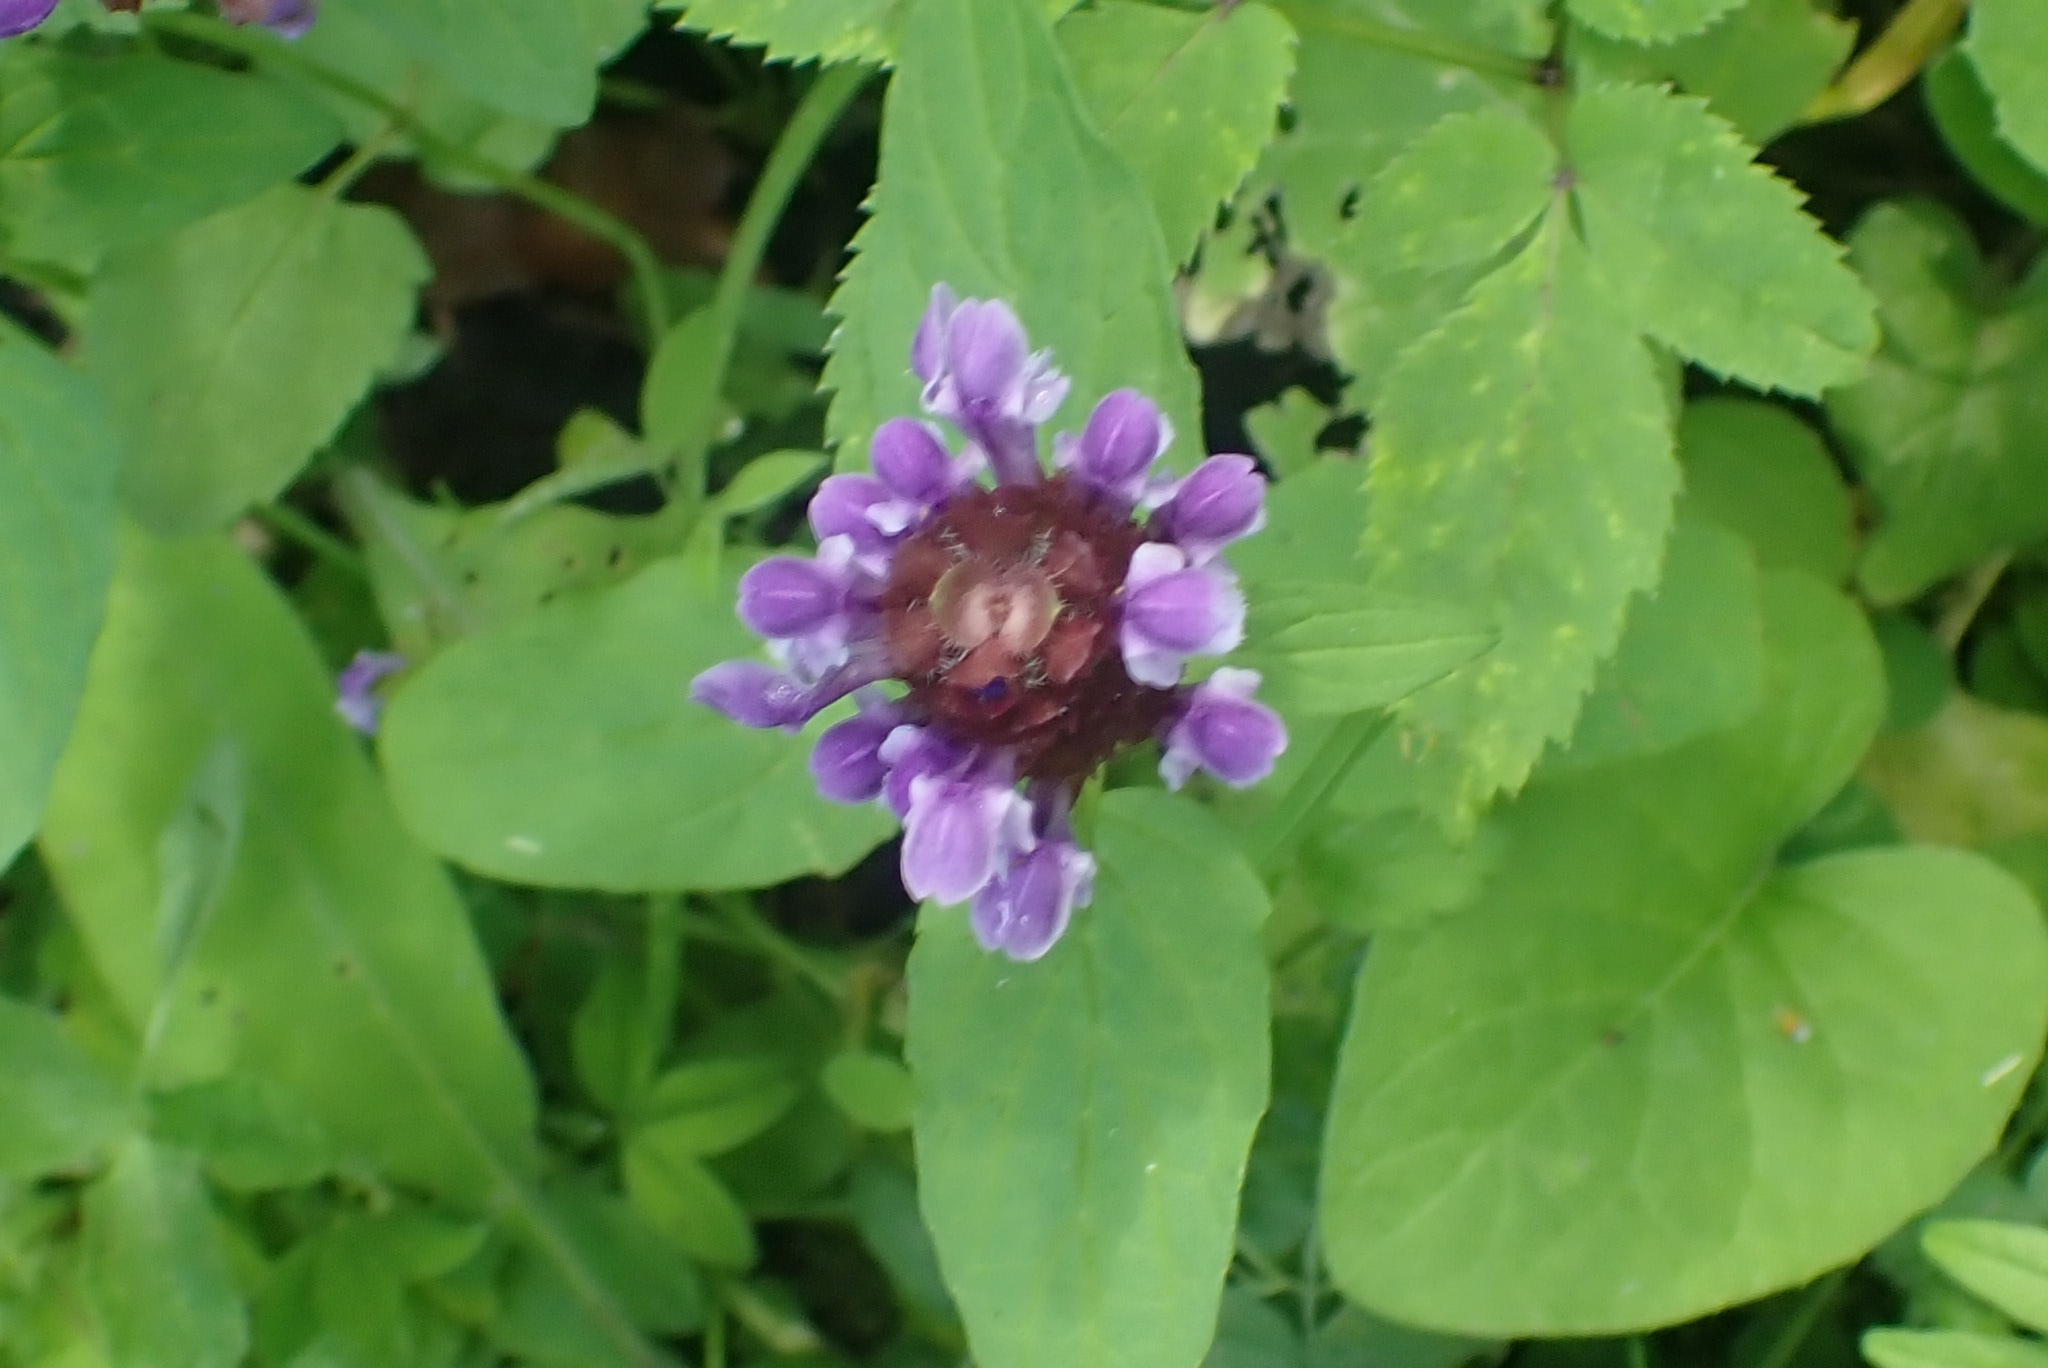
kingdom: Plantae
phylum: Tracheophyta
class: Magnoliopsida
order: Lamiales
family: Lamiaceae
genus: Prunella
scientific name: Prunella vulgaris
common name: Heal-all
